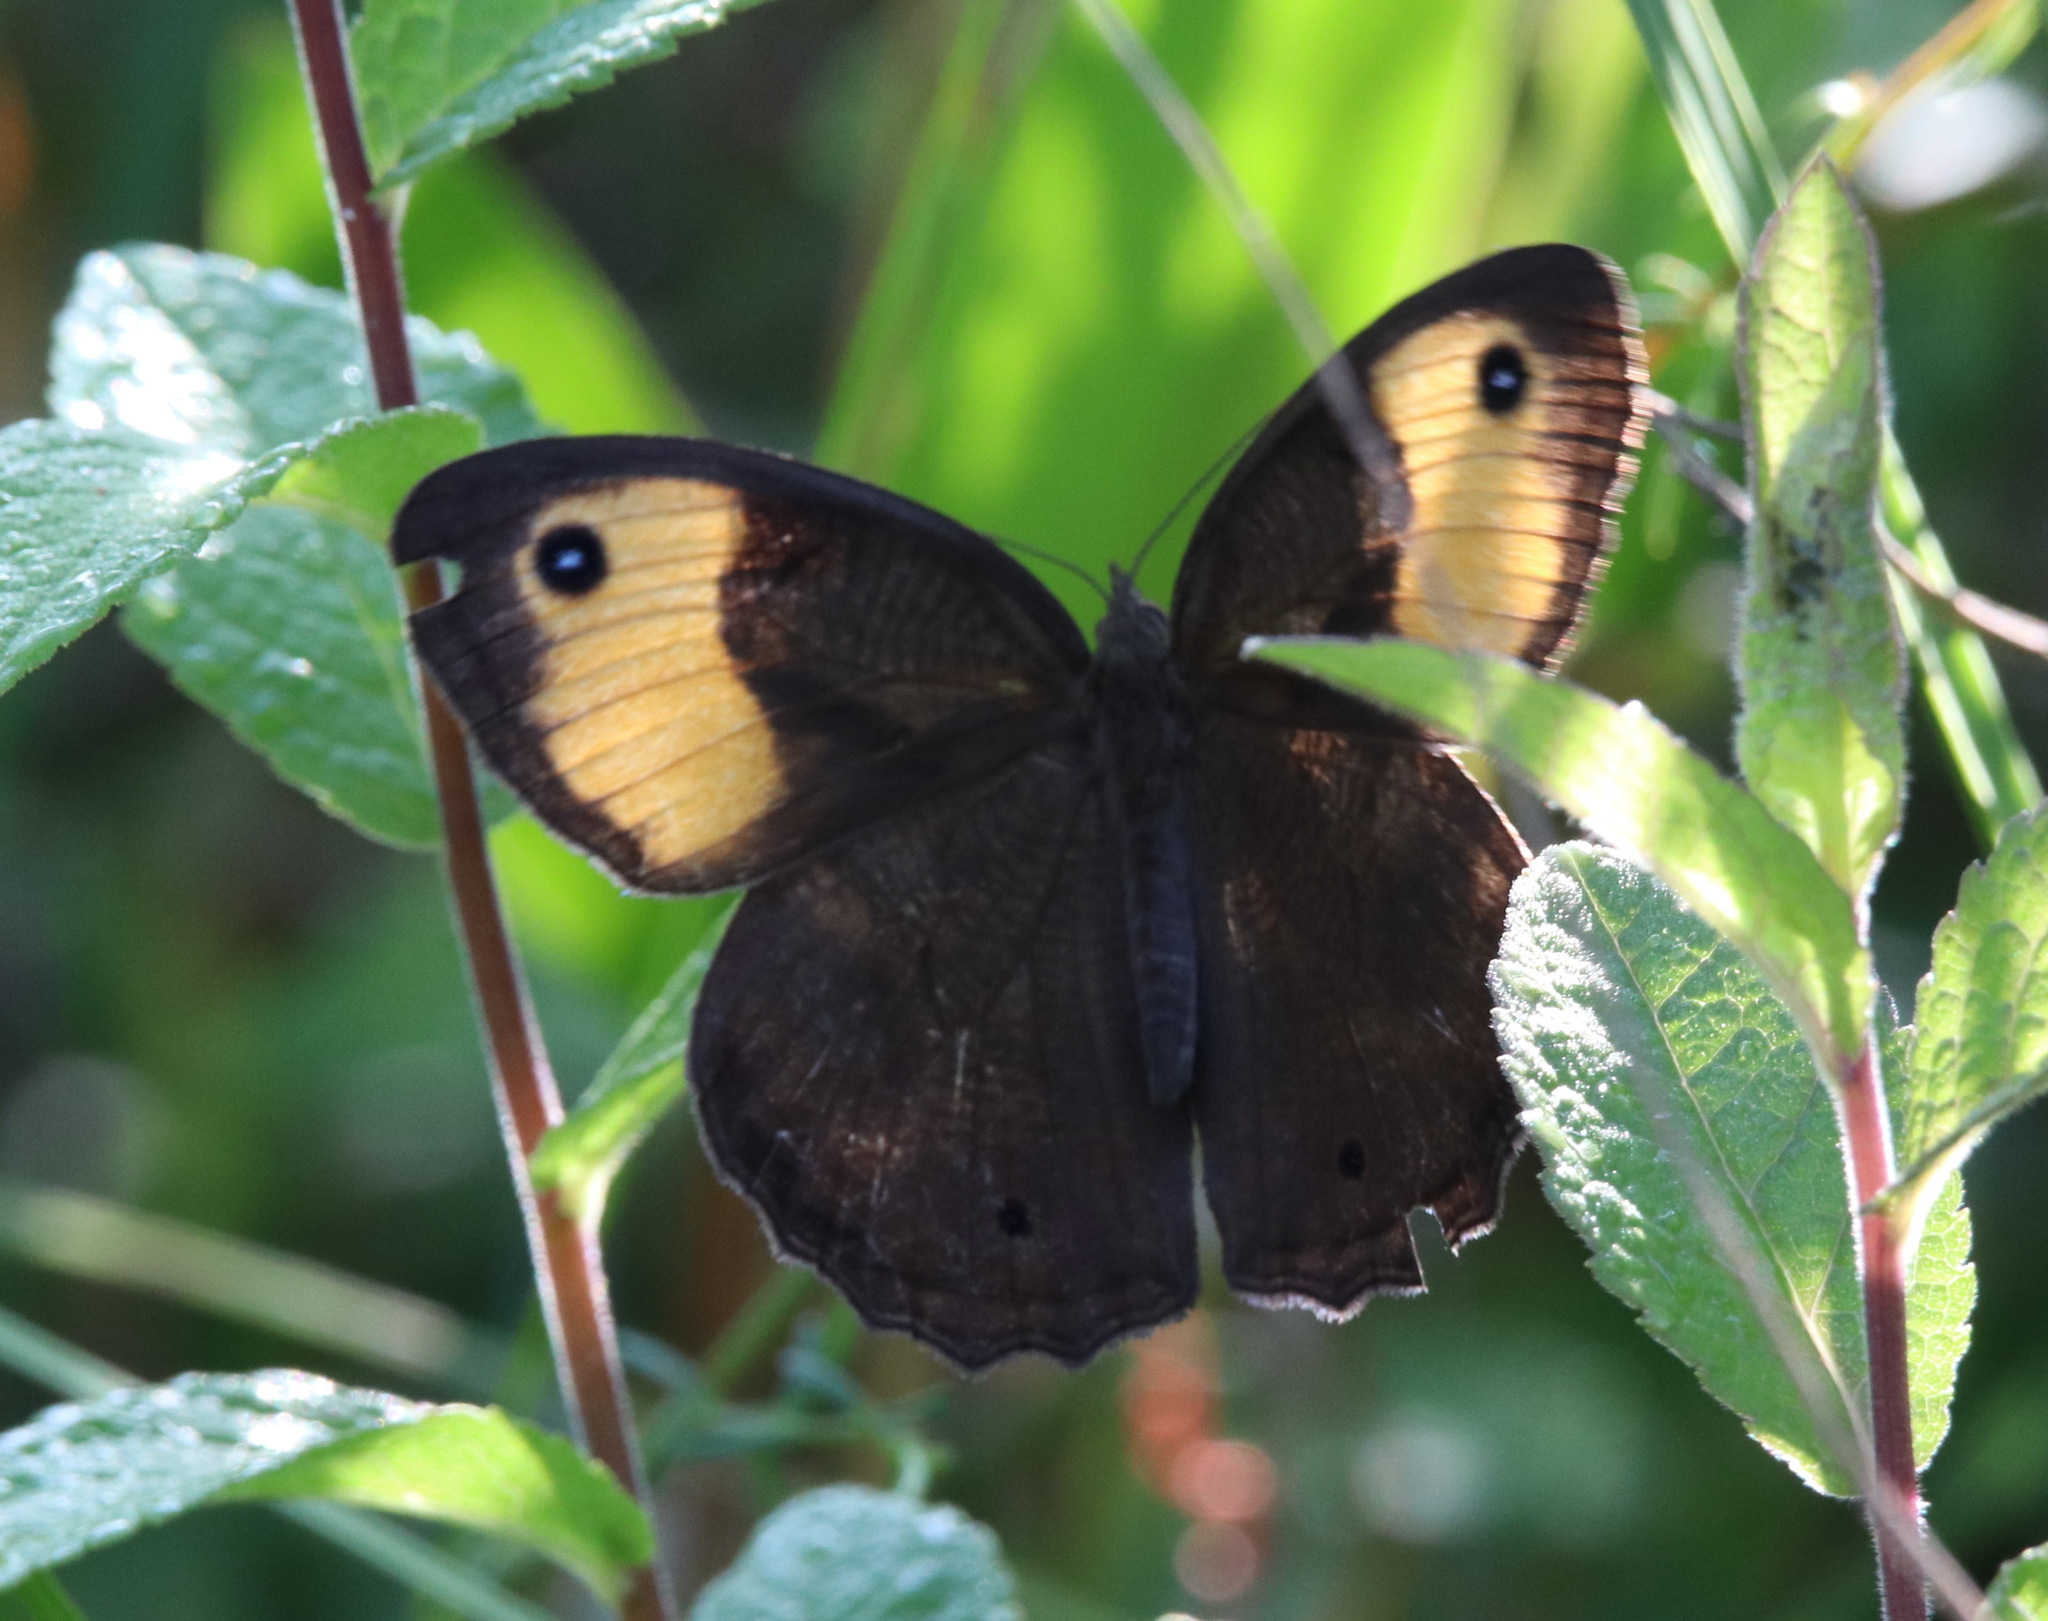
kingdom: Animalia
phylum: Arthropoda
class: Insecta
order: Lepidoptera
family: Nymphalidae
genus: Cercyonis
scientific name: Cercyonis pegala
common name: Common wood-nymph
